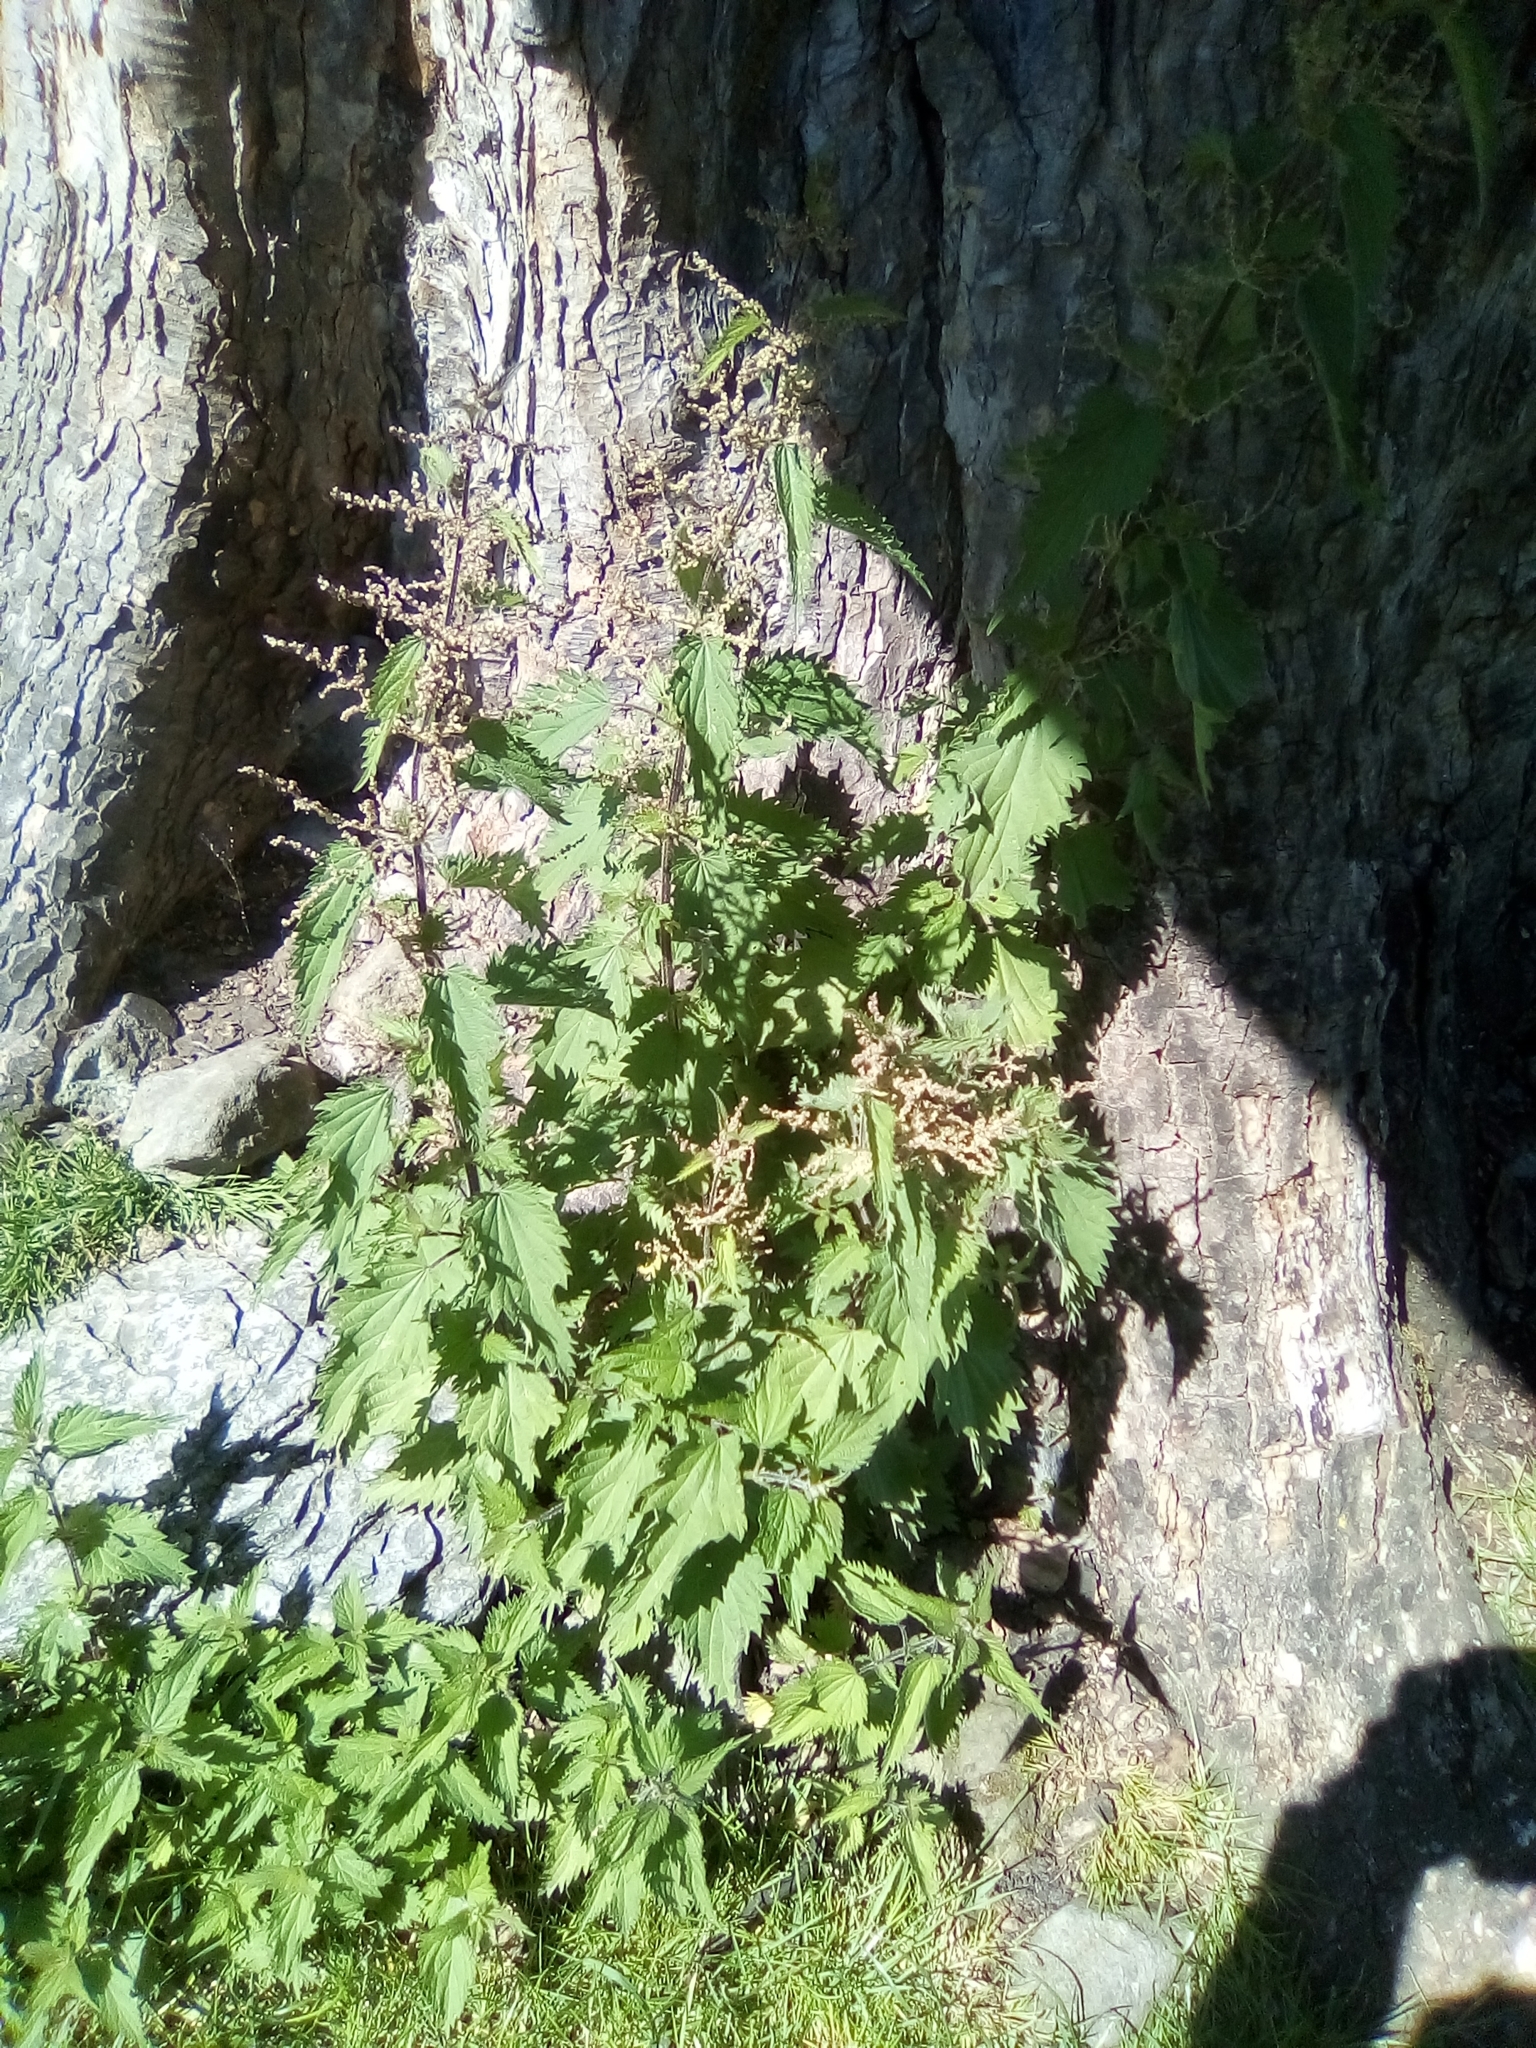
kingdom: Plantae
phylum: Tracheophyta
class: Magnoliopsida
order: Rosales
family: Urticaceae
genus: Urtica
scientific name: Urtica dioica
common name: Common nettle
